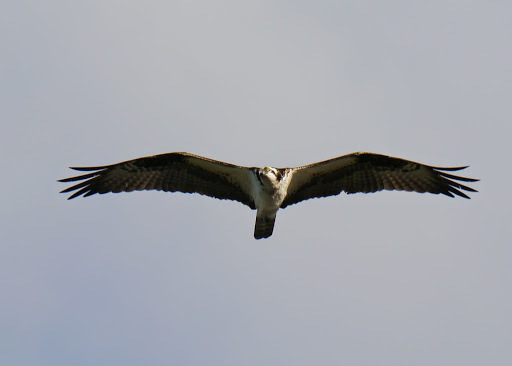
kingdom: Animalia
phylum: Chordata
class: Aves
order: Accipitriformes
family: Pandionidae
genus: Pandion
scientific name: Pandion haliaetus
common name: Osprey
